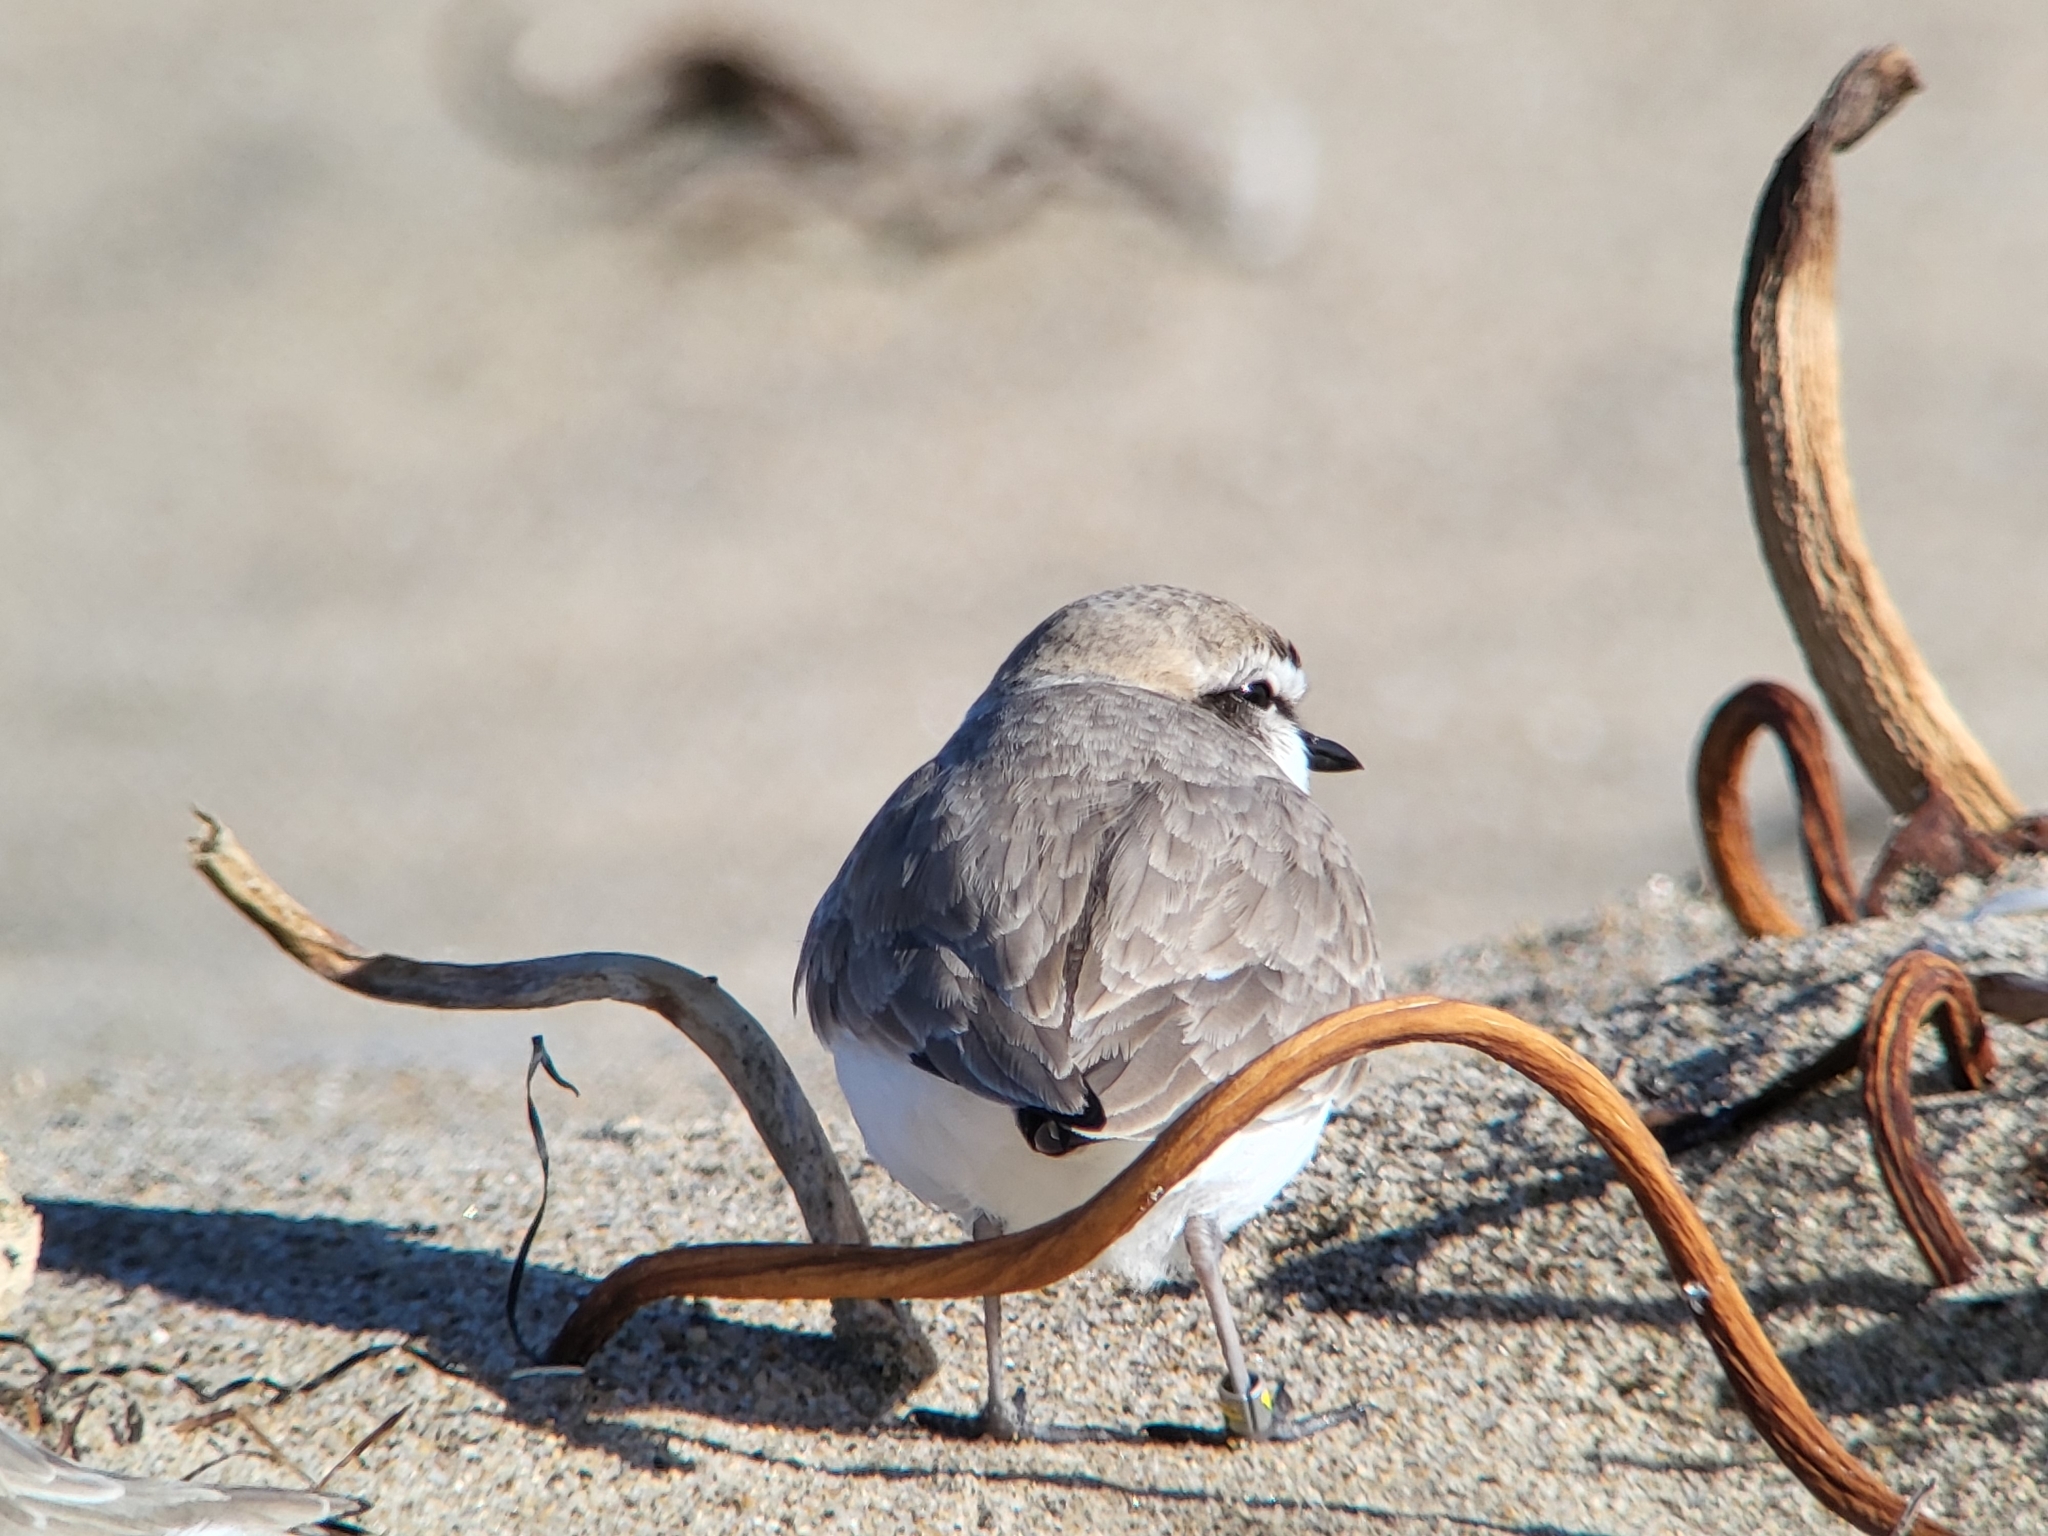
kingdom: Animalia
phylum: Chordata
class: Aves
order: Charadriiformes
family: Charadriidae
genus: Anarhynchus
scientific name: Anarhynchus
